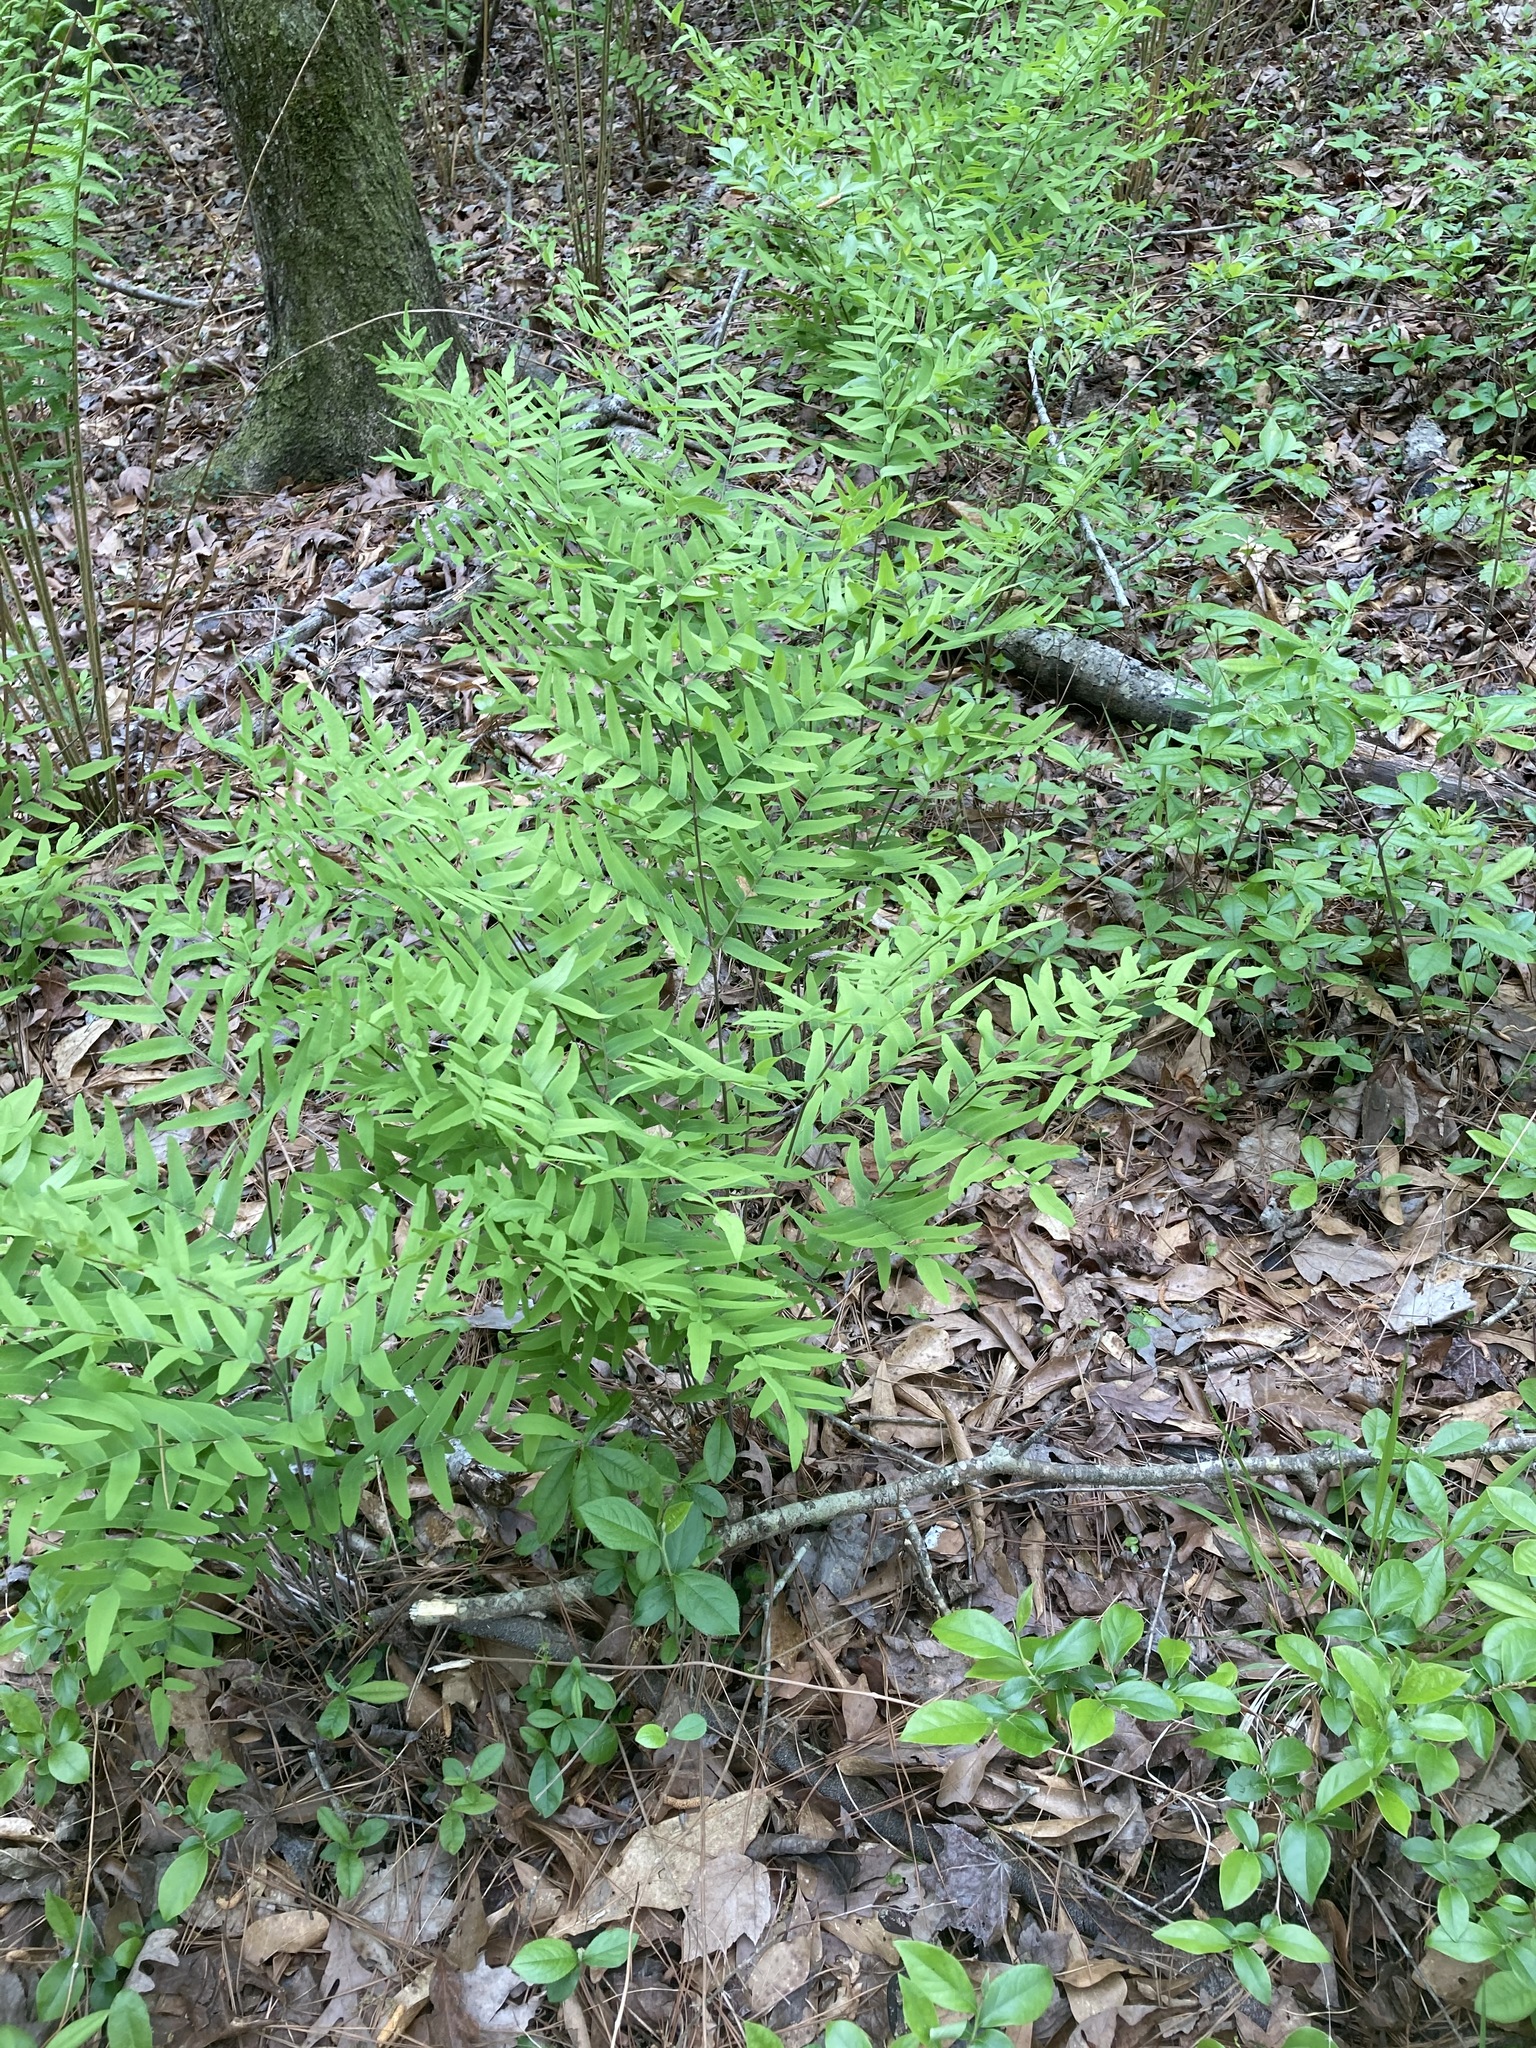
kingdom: Plantae
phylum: Tracheophyta
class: Polypodiopsida
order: Osmundales
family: Osmundaceae
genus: Osmunda
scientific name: Osmunda spectabilis
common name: American royal fern
